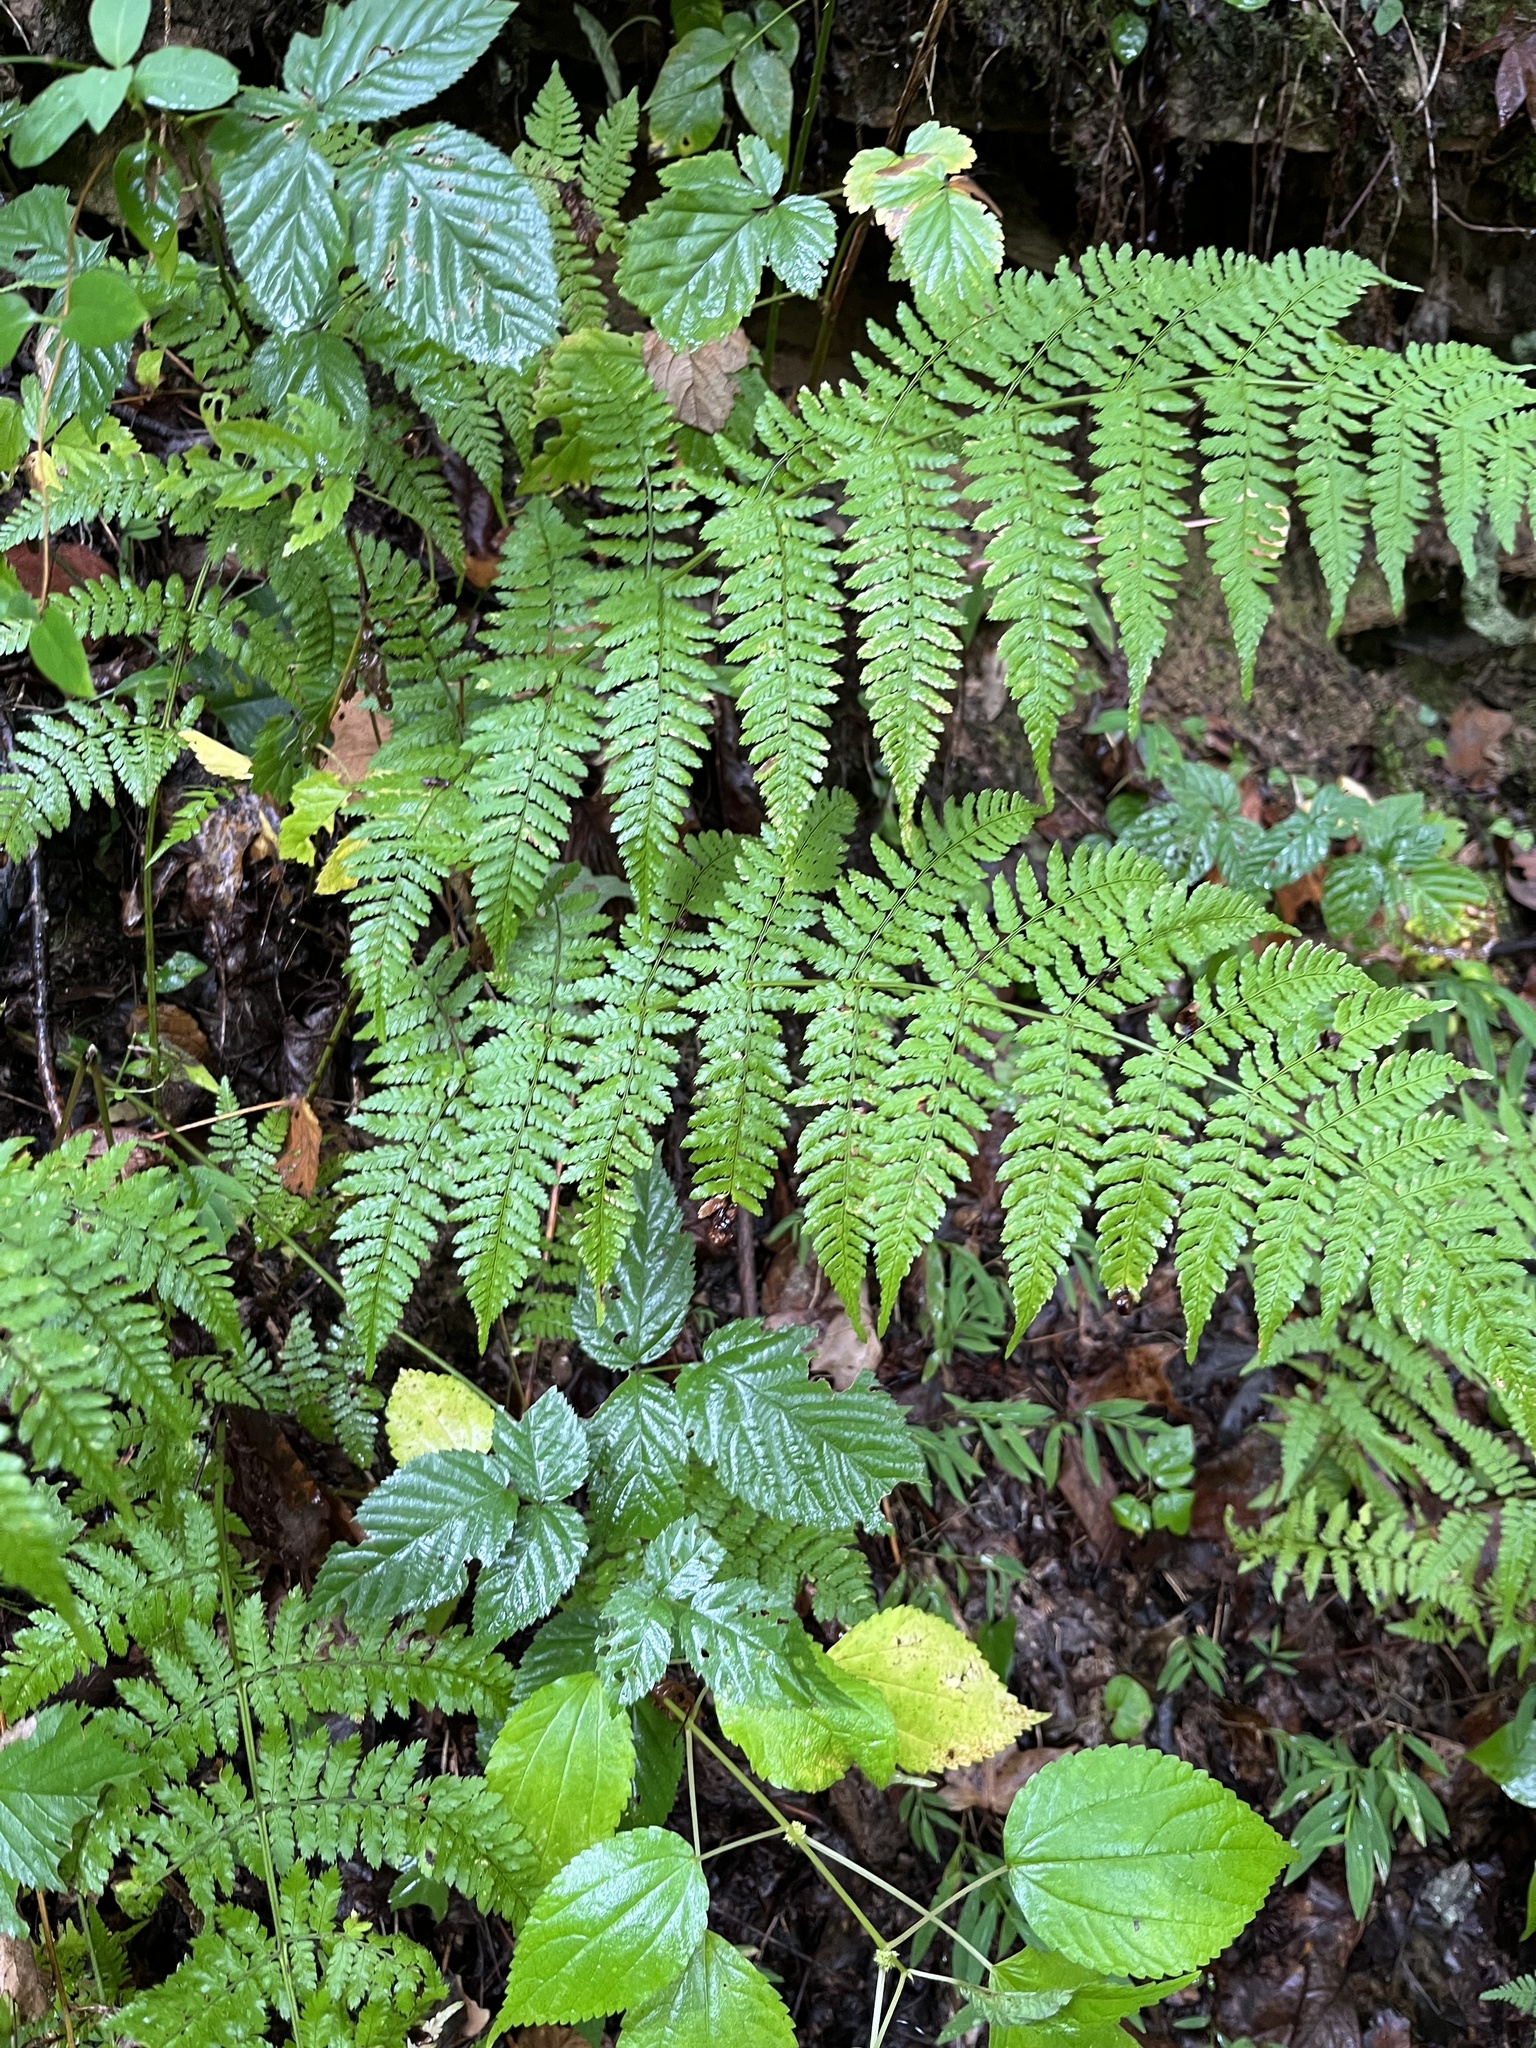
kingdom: Plantae
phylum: Tracheophyta
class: Polypodiopsida
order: Polypodiales
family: Dryopteridaceae
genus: Dryopteris
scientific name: Dryopteris intermedia
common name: Evergreen wood fern
